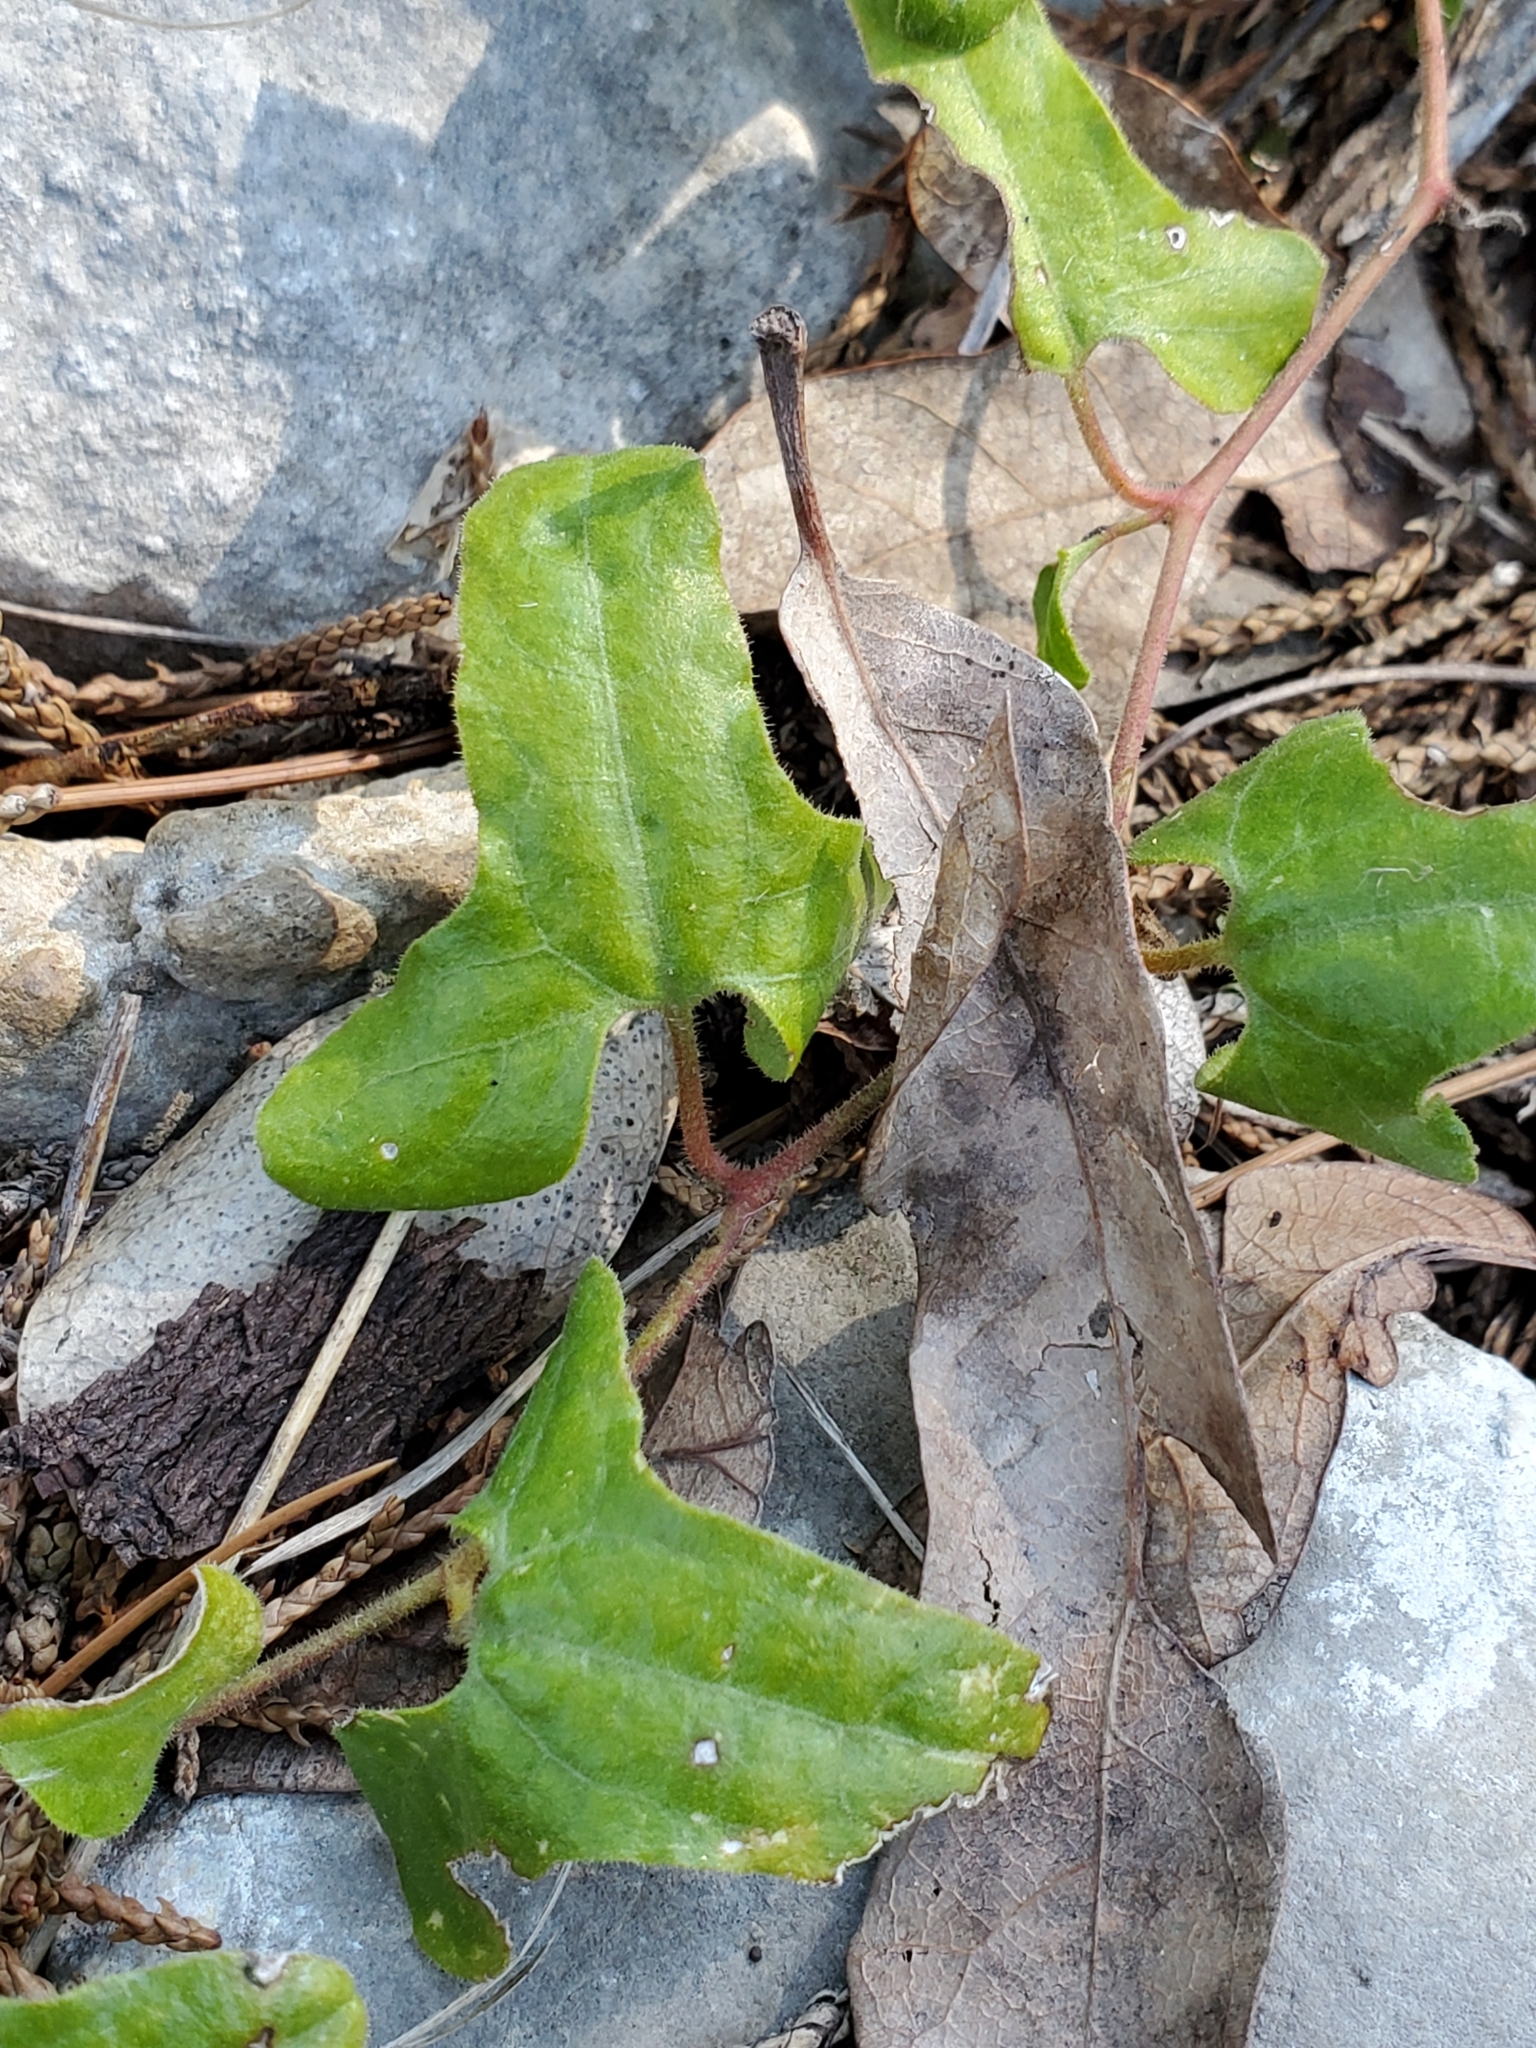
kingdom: Plantae
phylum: Tracheophyta
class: Magnoliopsida
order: Piperales
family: Aristolochiaceae
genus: Aristolochia
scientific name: Aristolochia coryi
